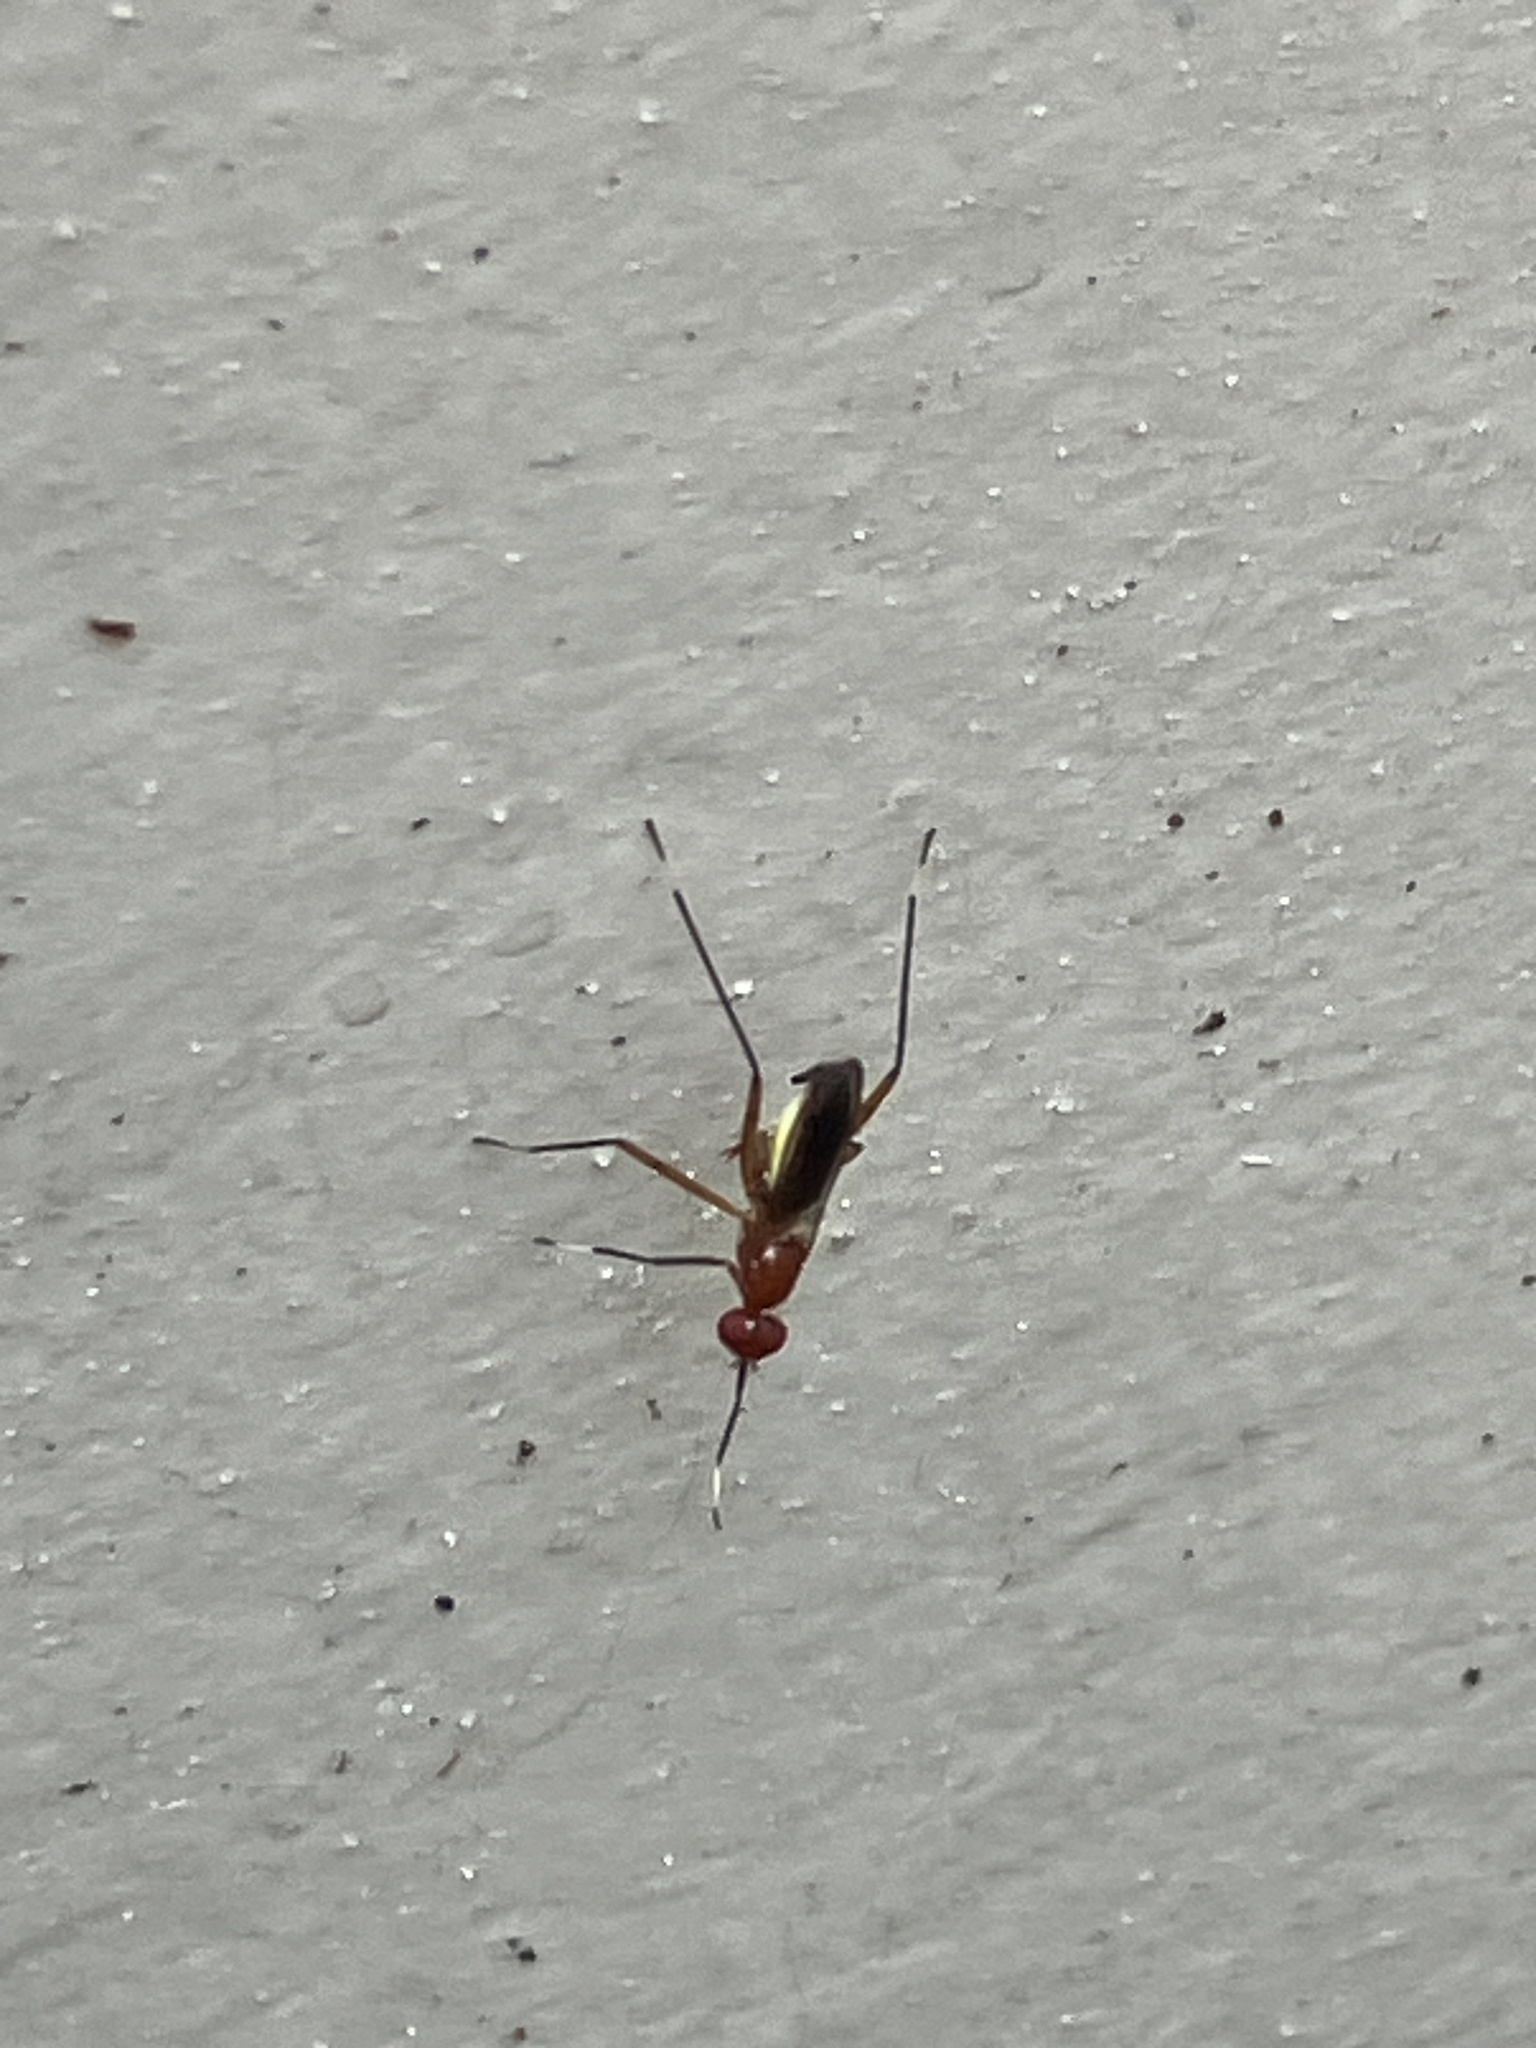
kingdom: Animalia
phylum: Arthropoda
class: Insecta
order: Diptera
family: Micropezidae
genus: Grallipeza
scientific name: Grallipeza nebulosa
